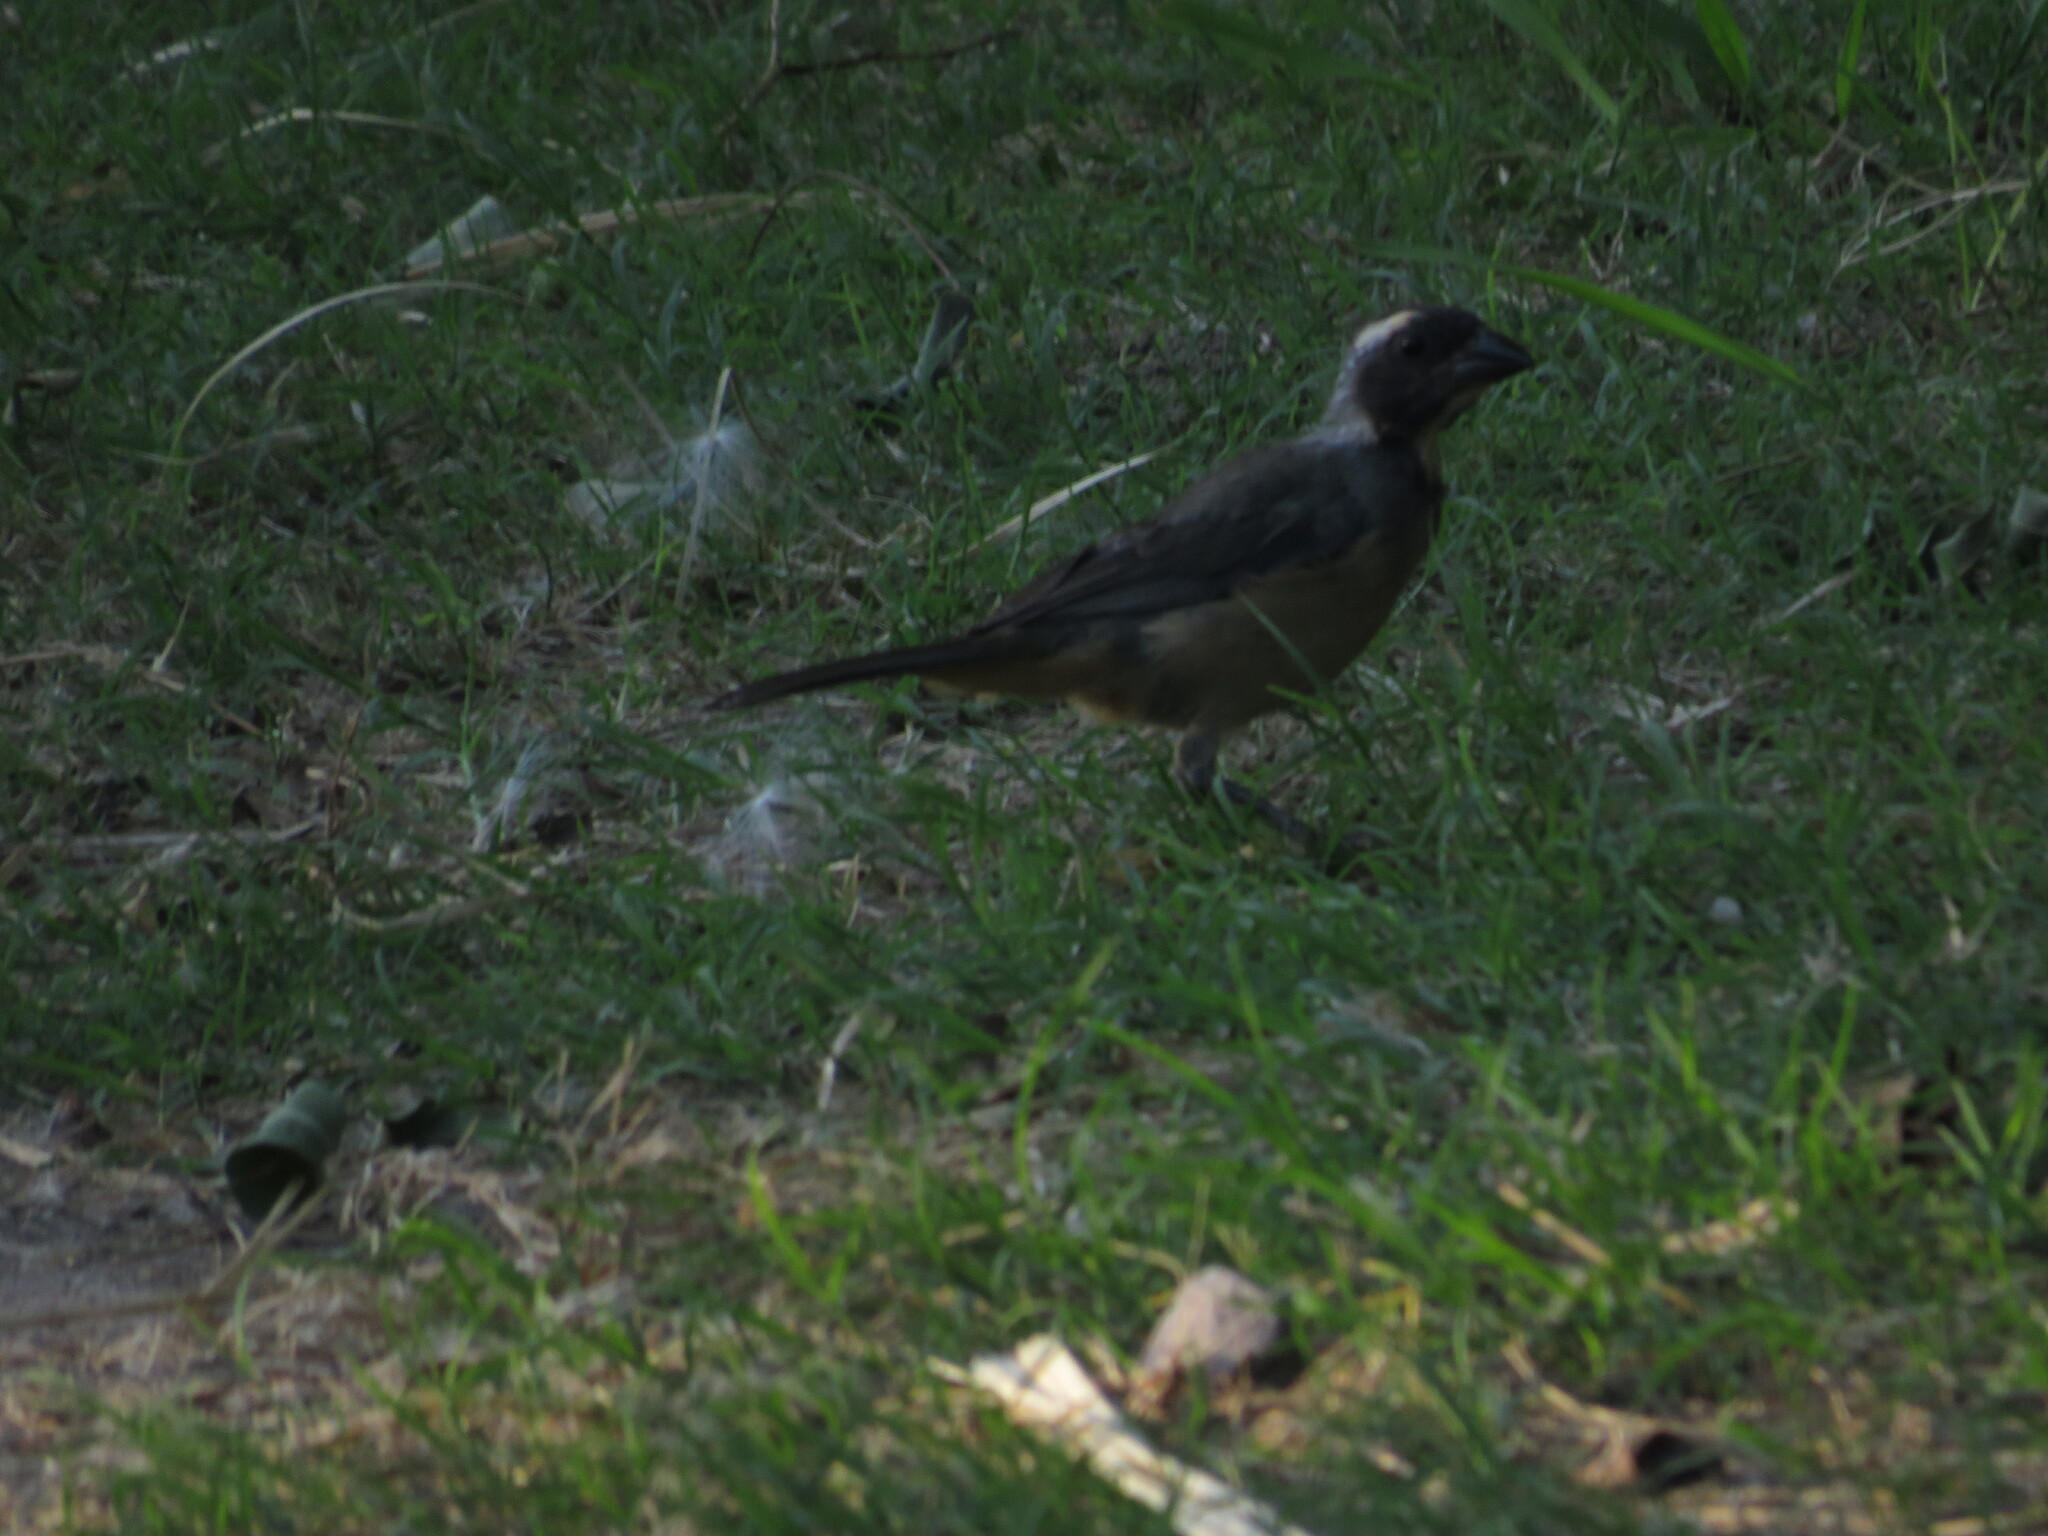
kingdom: Animalia
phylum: Chordata
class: Aves
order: Passeriformes
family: Thraupidae
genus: Saltator
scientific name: Saltator aurantiirostris
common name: Golden-billed saltator
